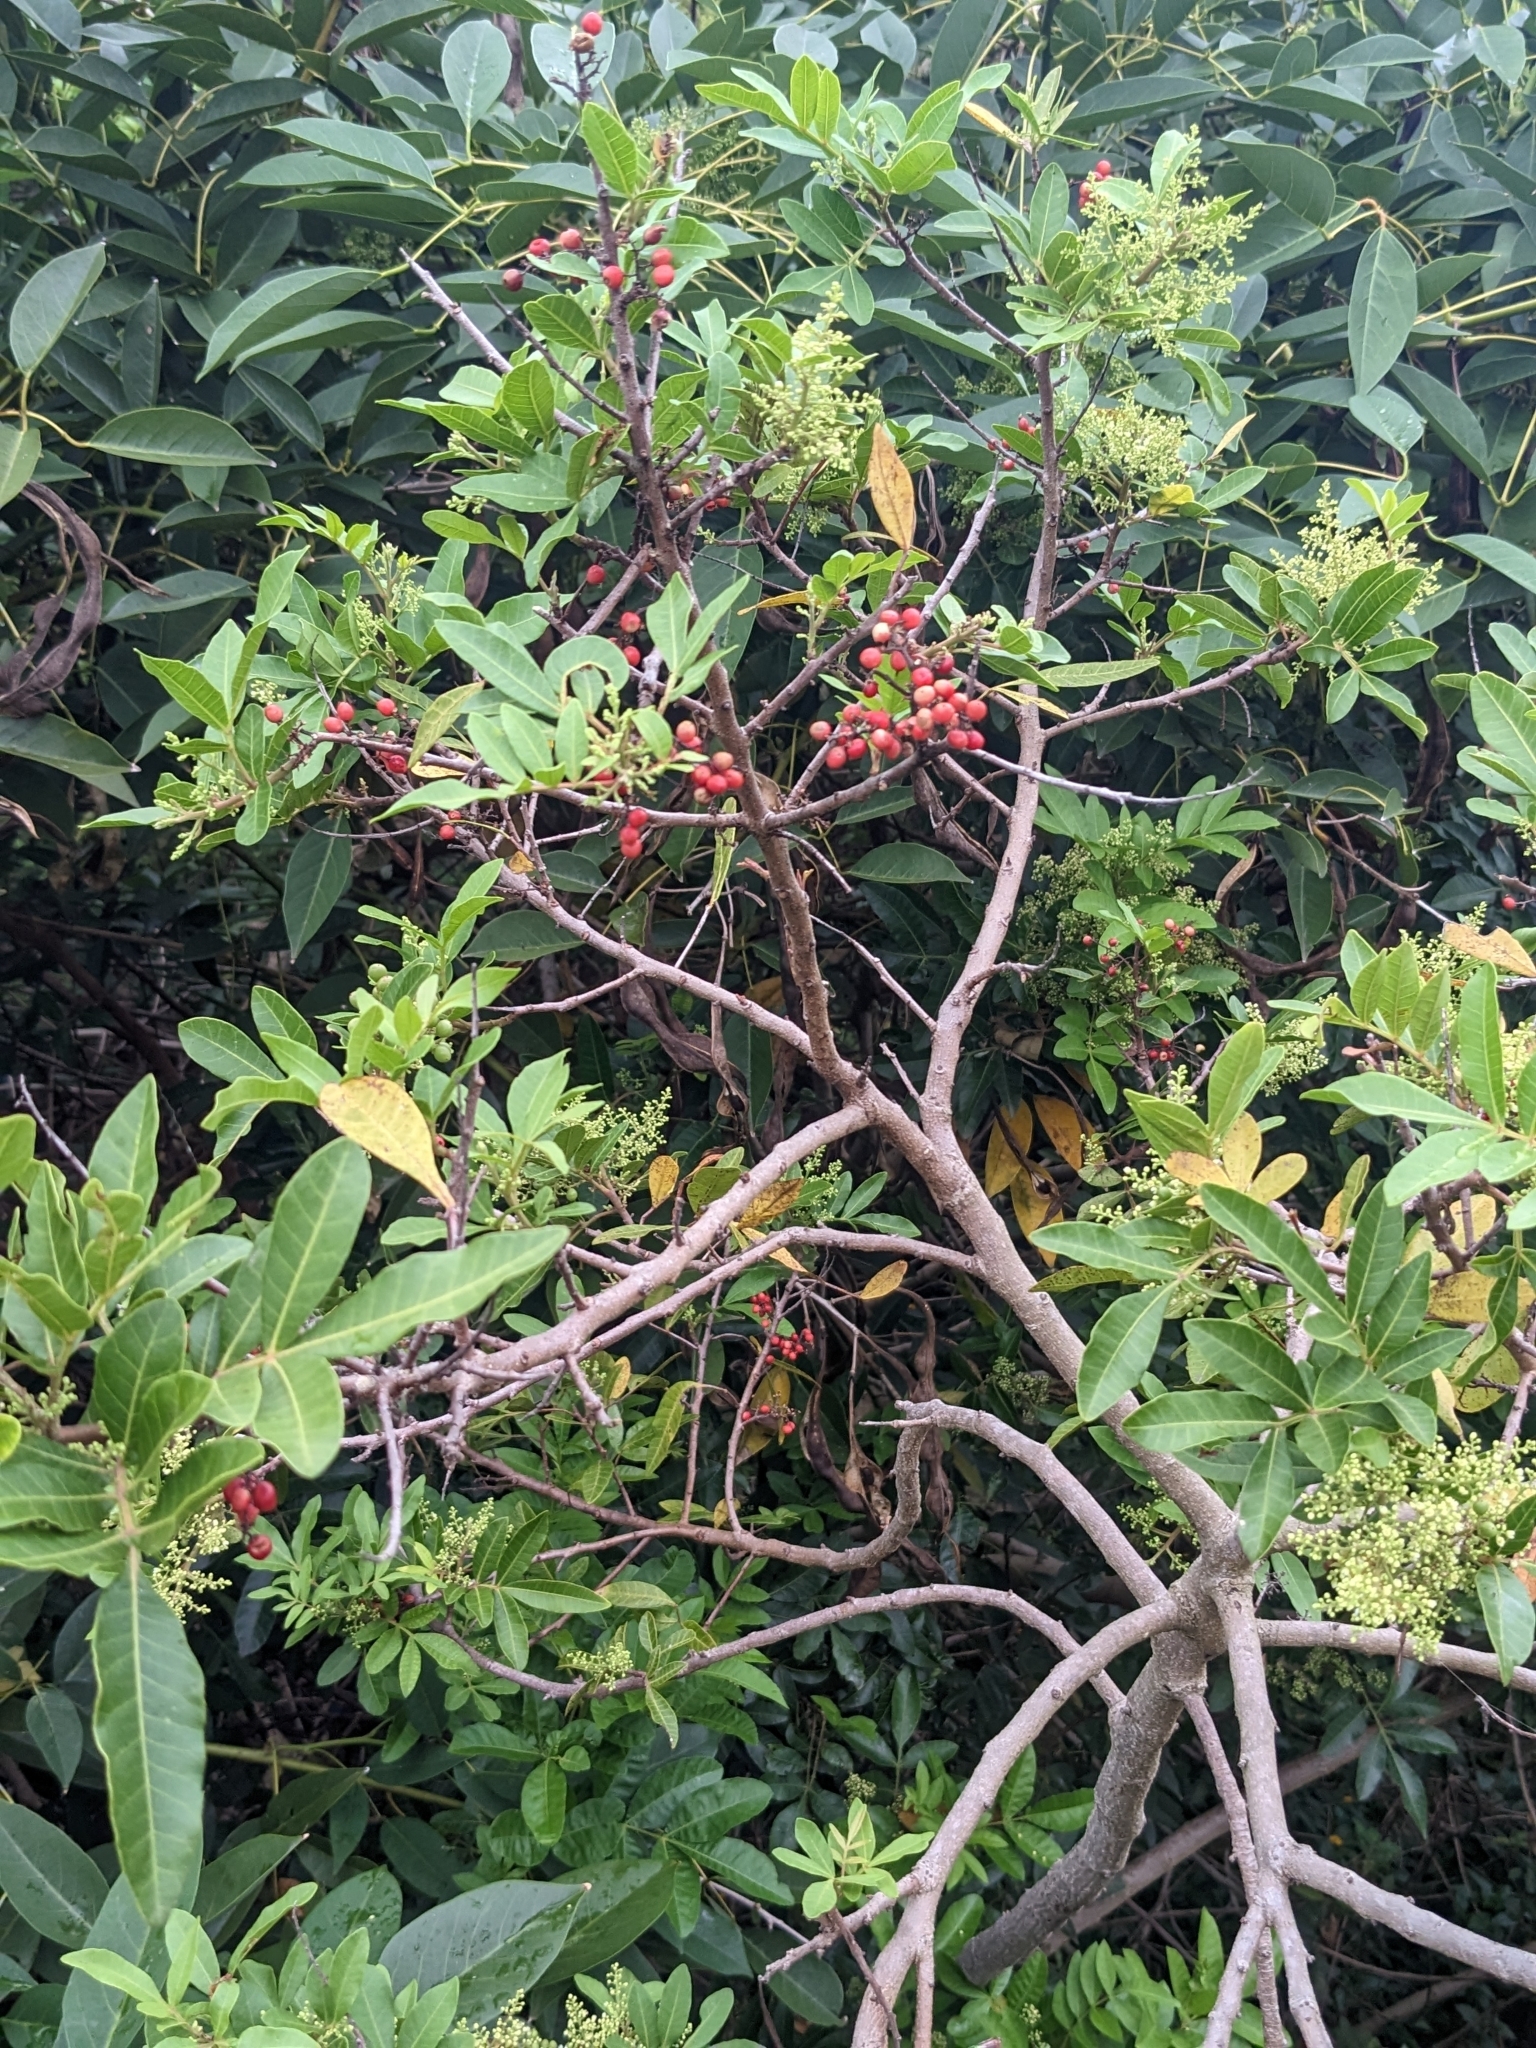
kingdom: Plantae
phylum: Tracheophyta
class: Magnoliopsida
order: Sapindales
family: Anacardiaceae
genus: Schinus
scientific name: Schinus terebinthifolia
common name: Brazilian peppertree
